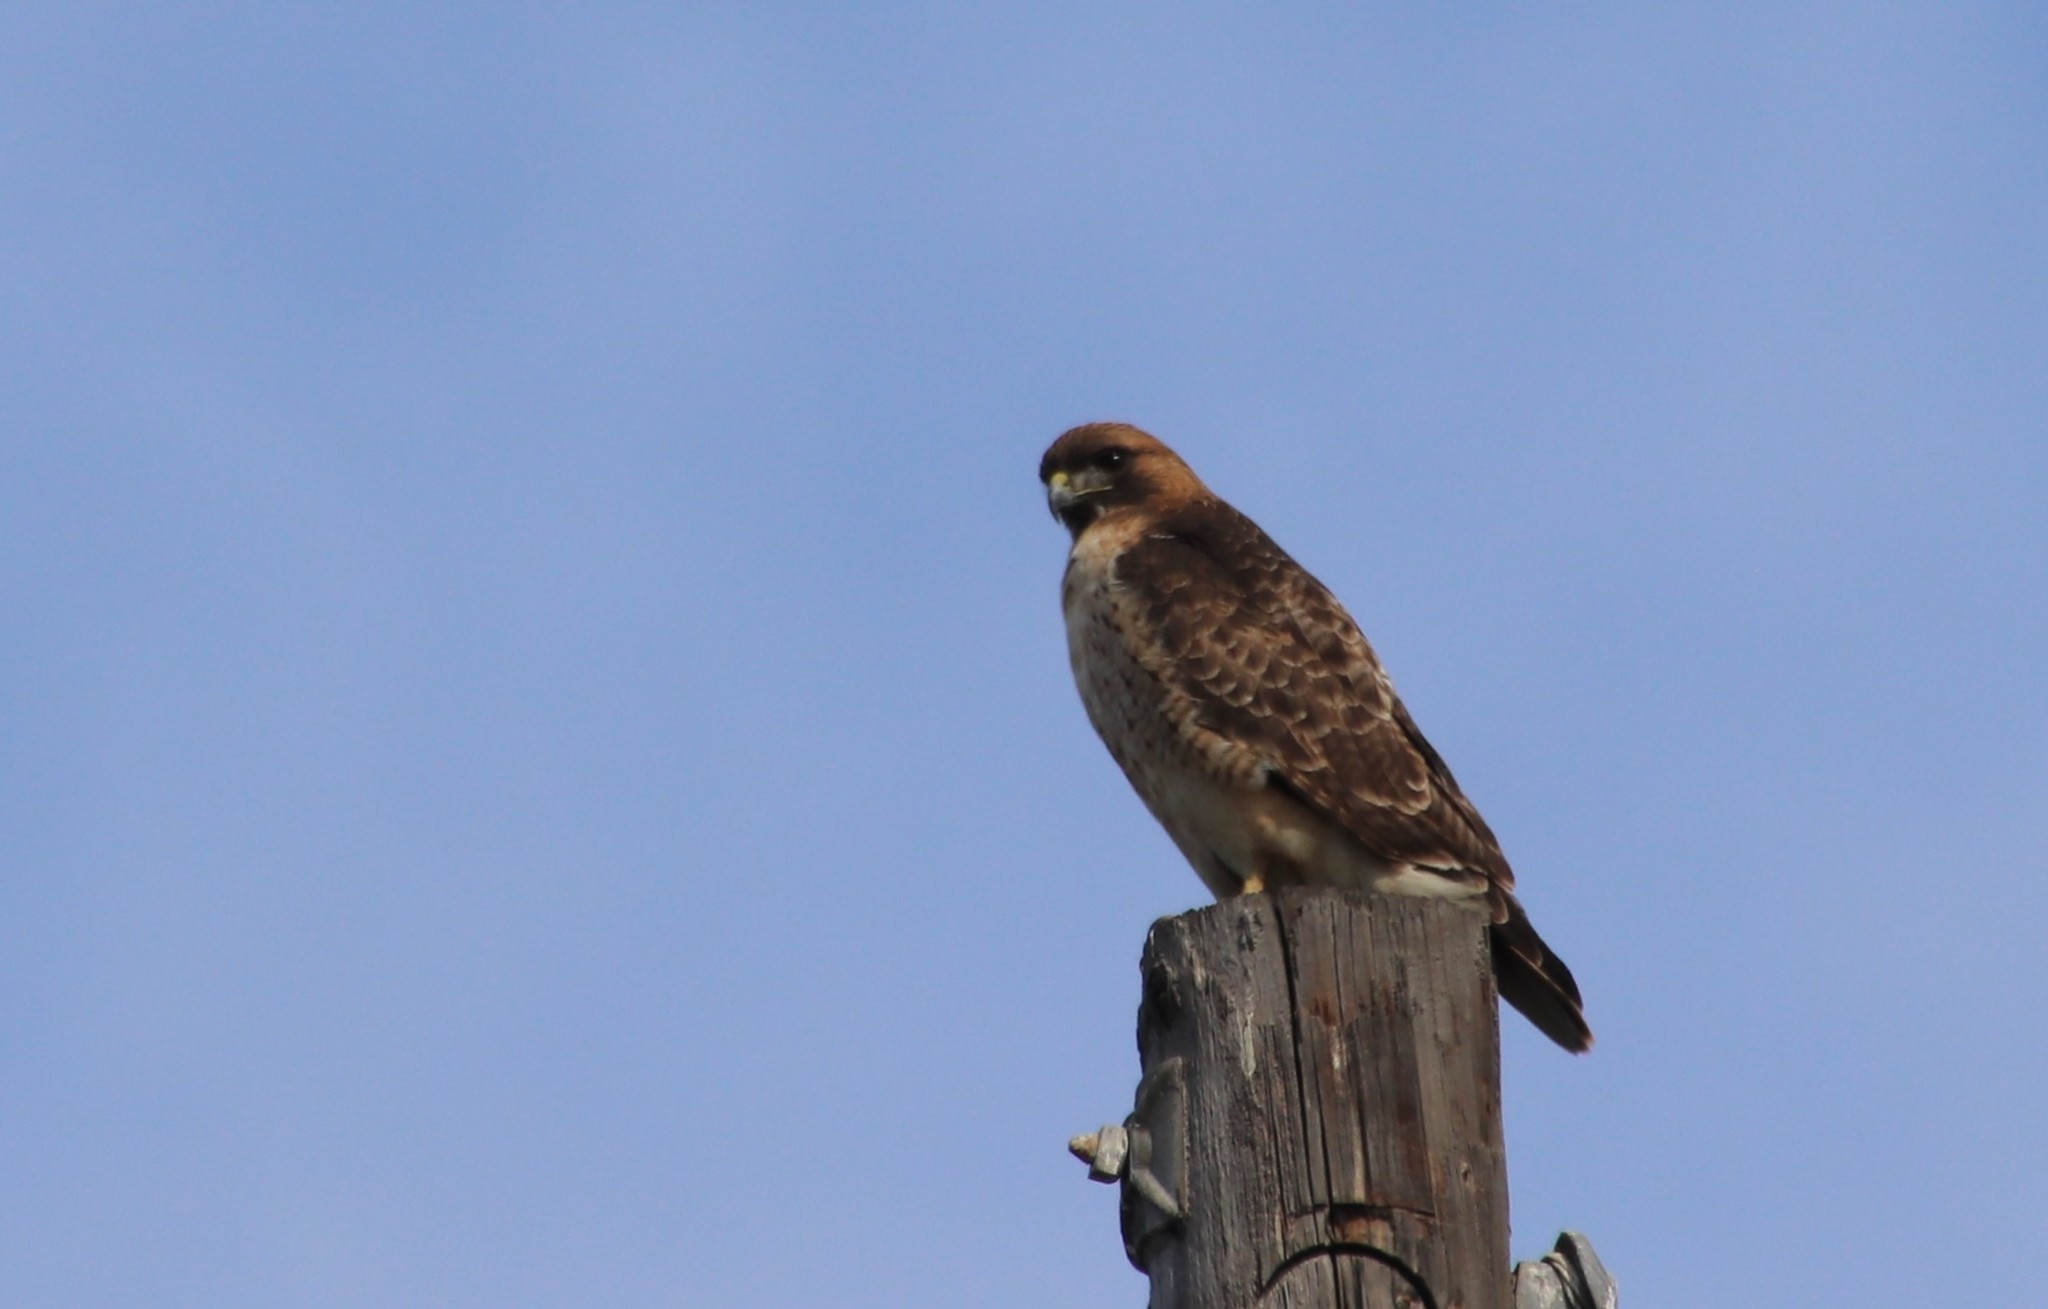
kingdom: Animalia
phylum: Chordata
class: Aves
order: Accipitriformes
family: Accipitridae
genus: Buteo
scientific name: Buteo jamaicensis
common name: Red-tailed hawk
